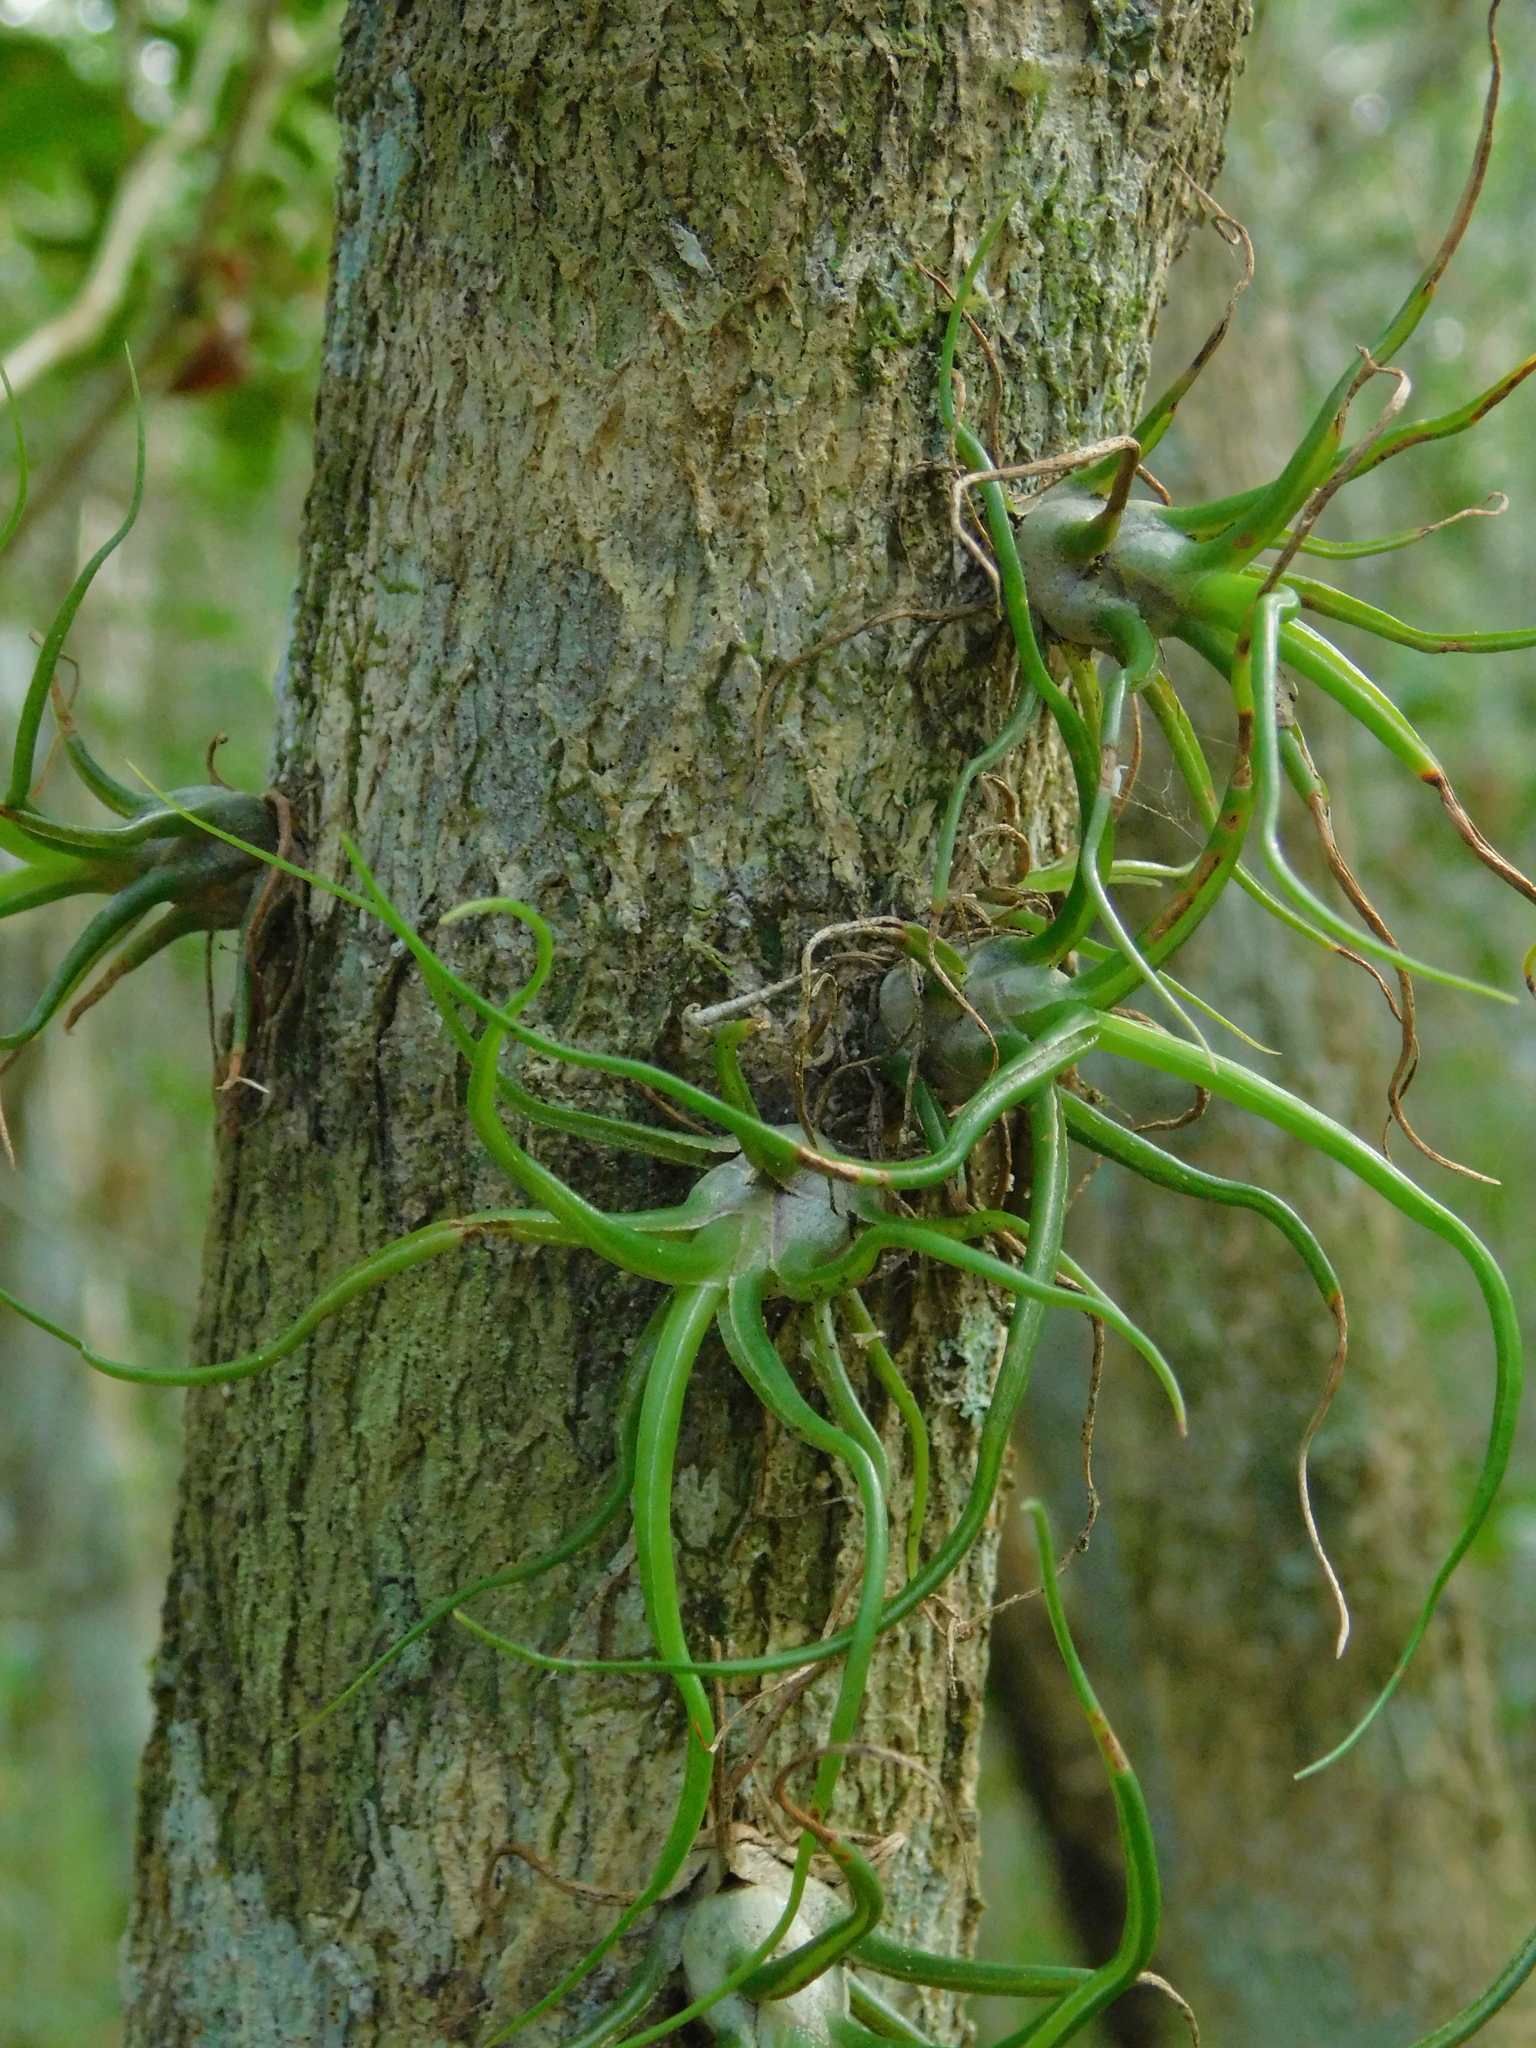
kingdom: Plantae
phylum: Tracheophyta
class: Liliopsida
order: Poales
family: Bromeliaceae
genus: Tillandsia
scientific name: Tillandsia bulbosa
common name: Bulbous airplant
